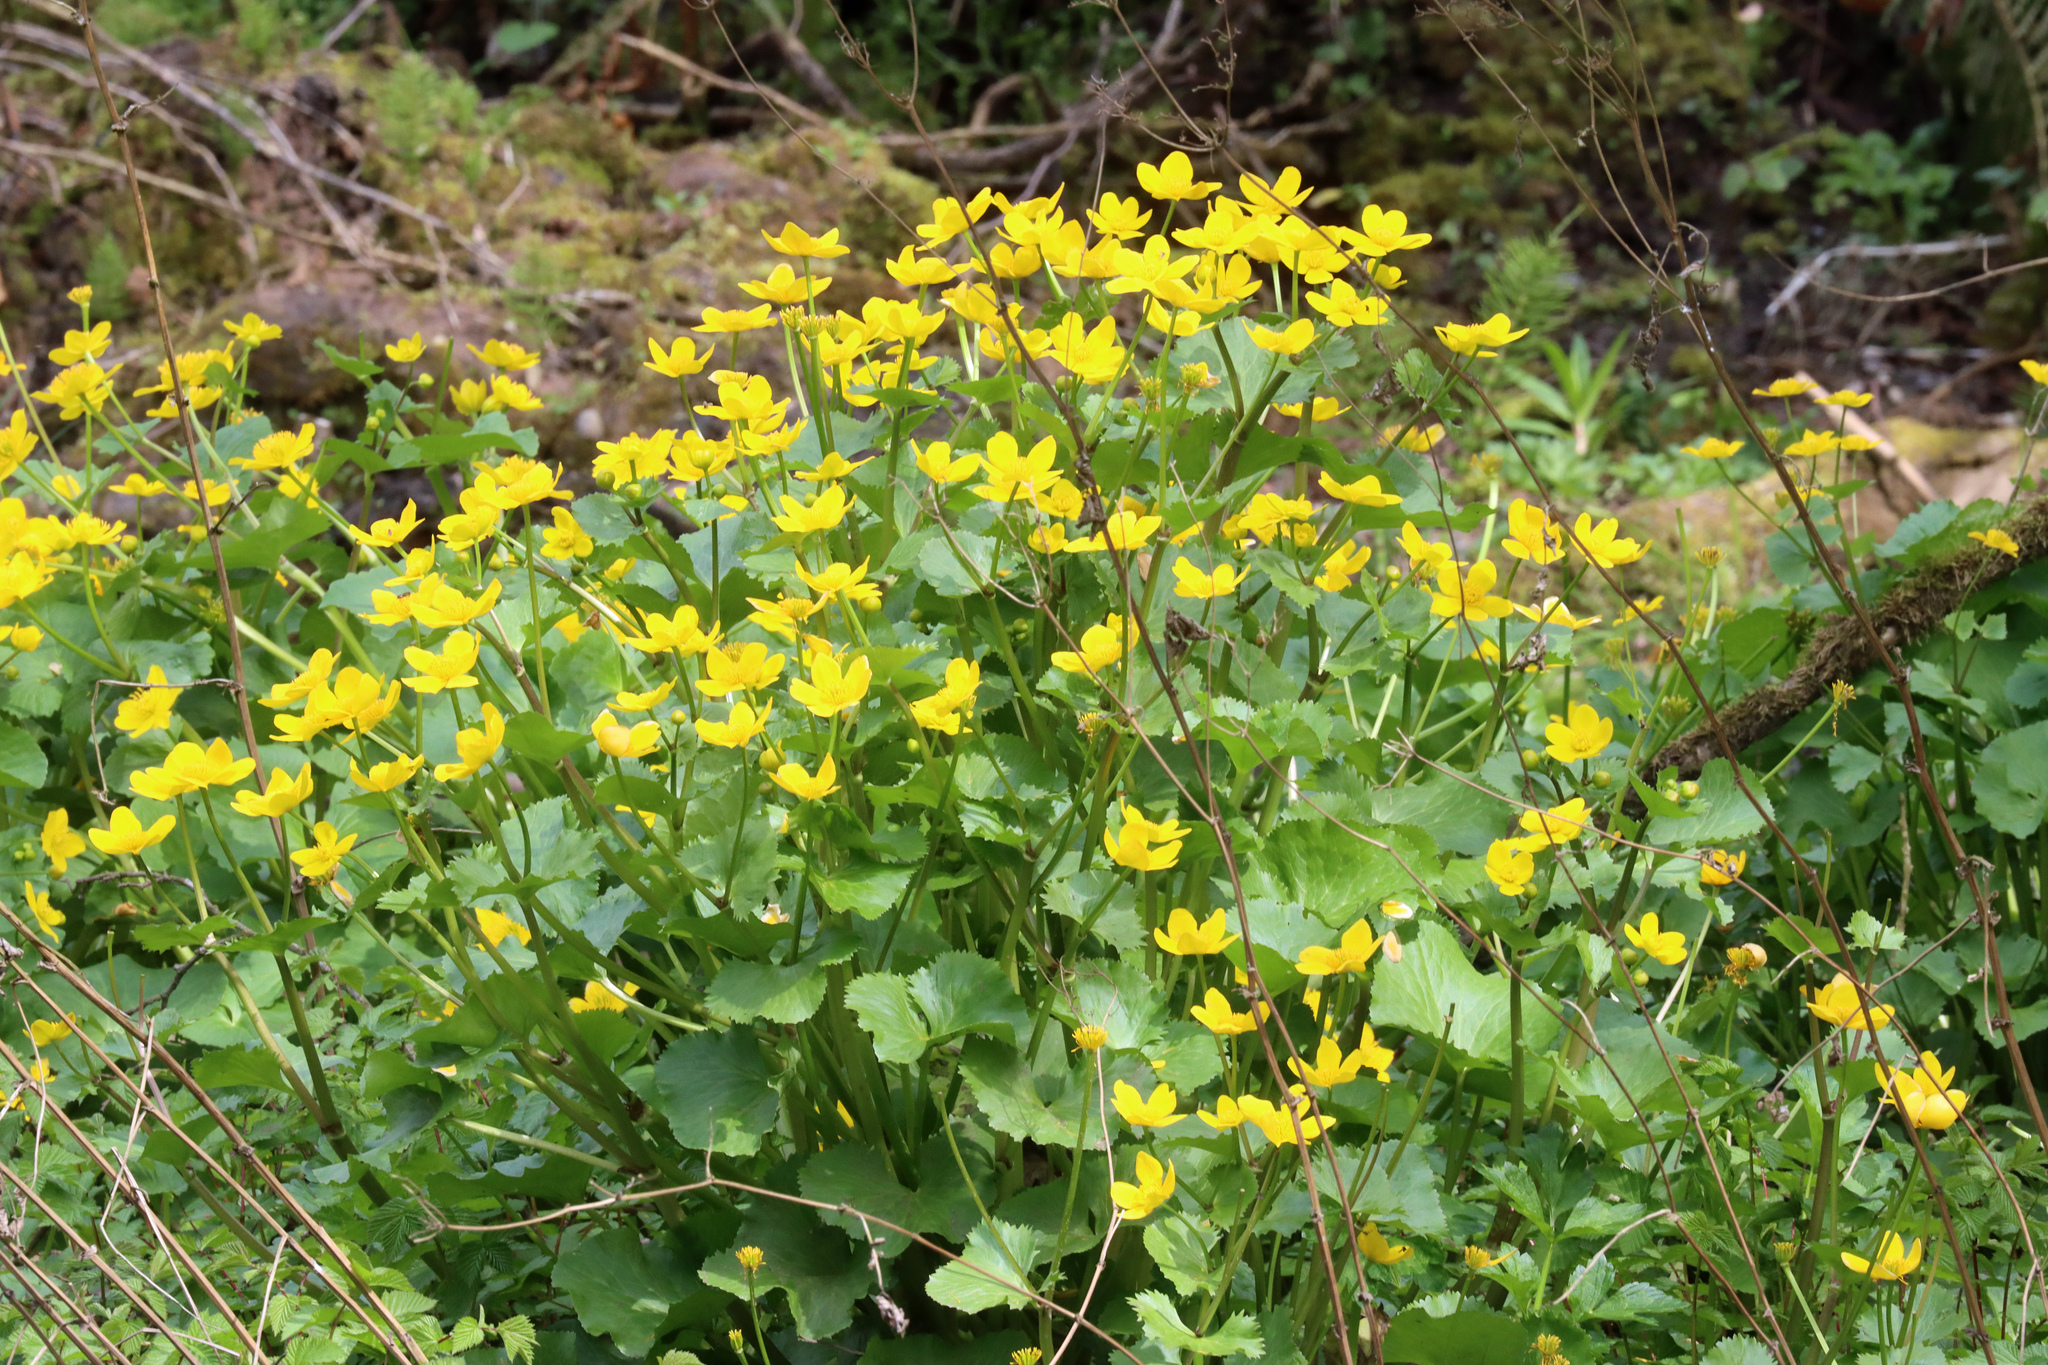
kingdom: Plantae
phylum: Tracheophyta
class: Magnoliopsida
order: Ranunculales
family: Ranunculaceae
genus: Caltha
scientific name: Caltha palustris
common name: Marsh marigold
